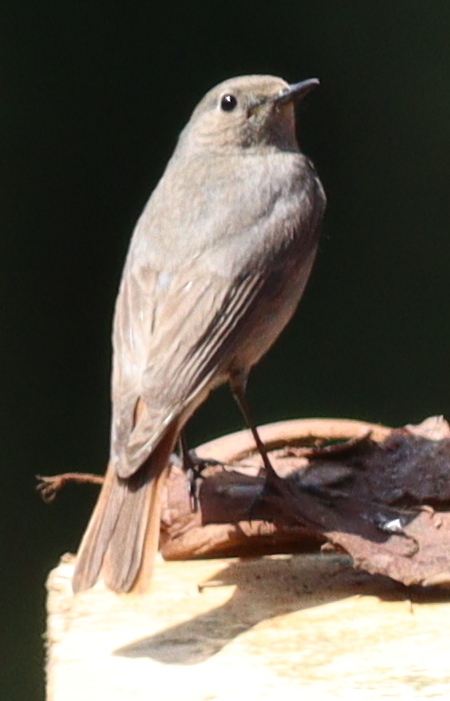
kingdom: Animalia
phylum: Chordata
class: Aves
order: Passeriformes
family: Muscicapidae
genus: Phoenicurus
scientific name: Phoenicurus ochruros
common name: Black redstart
